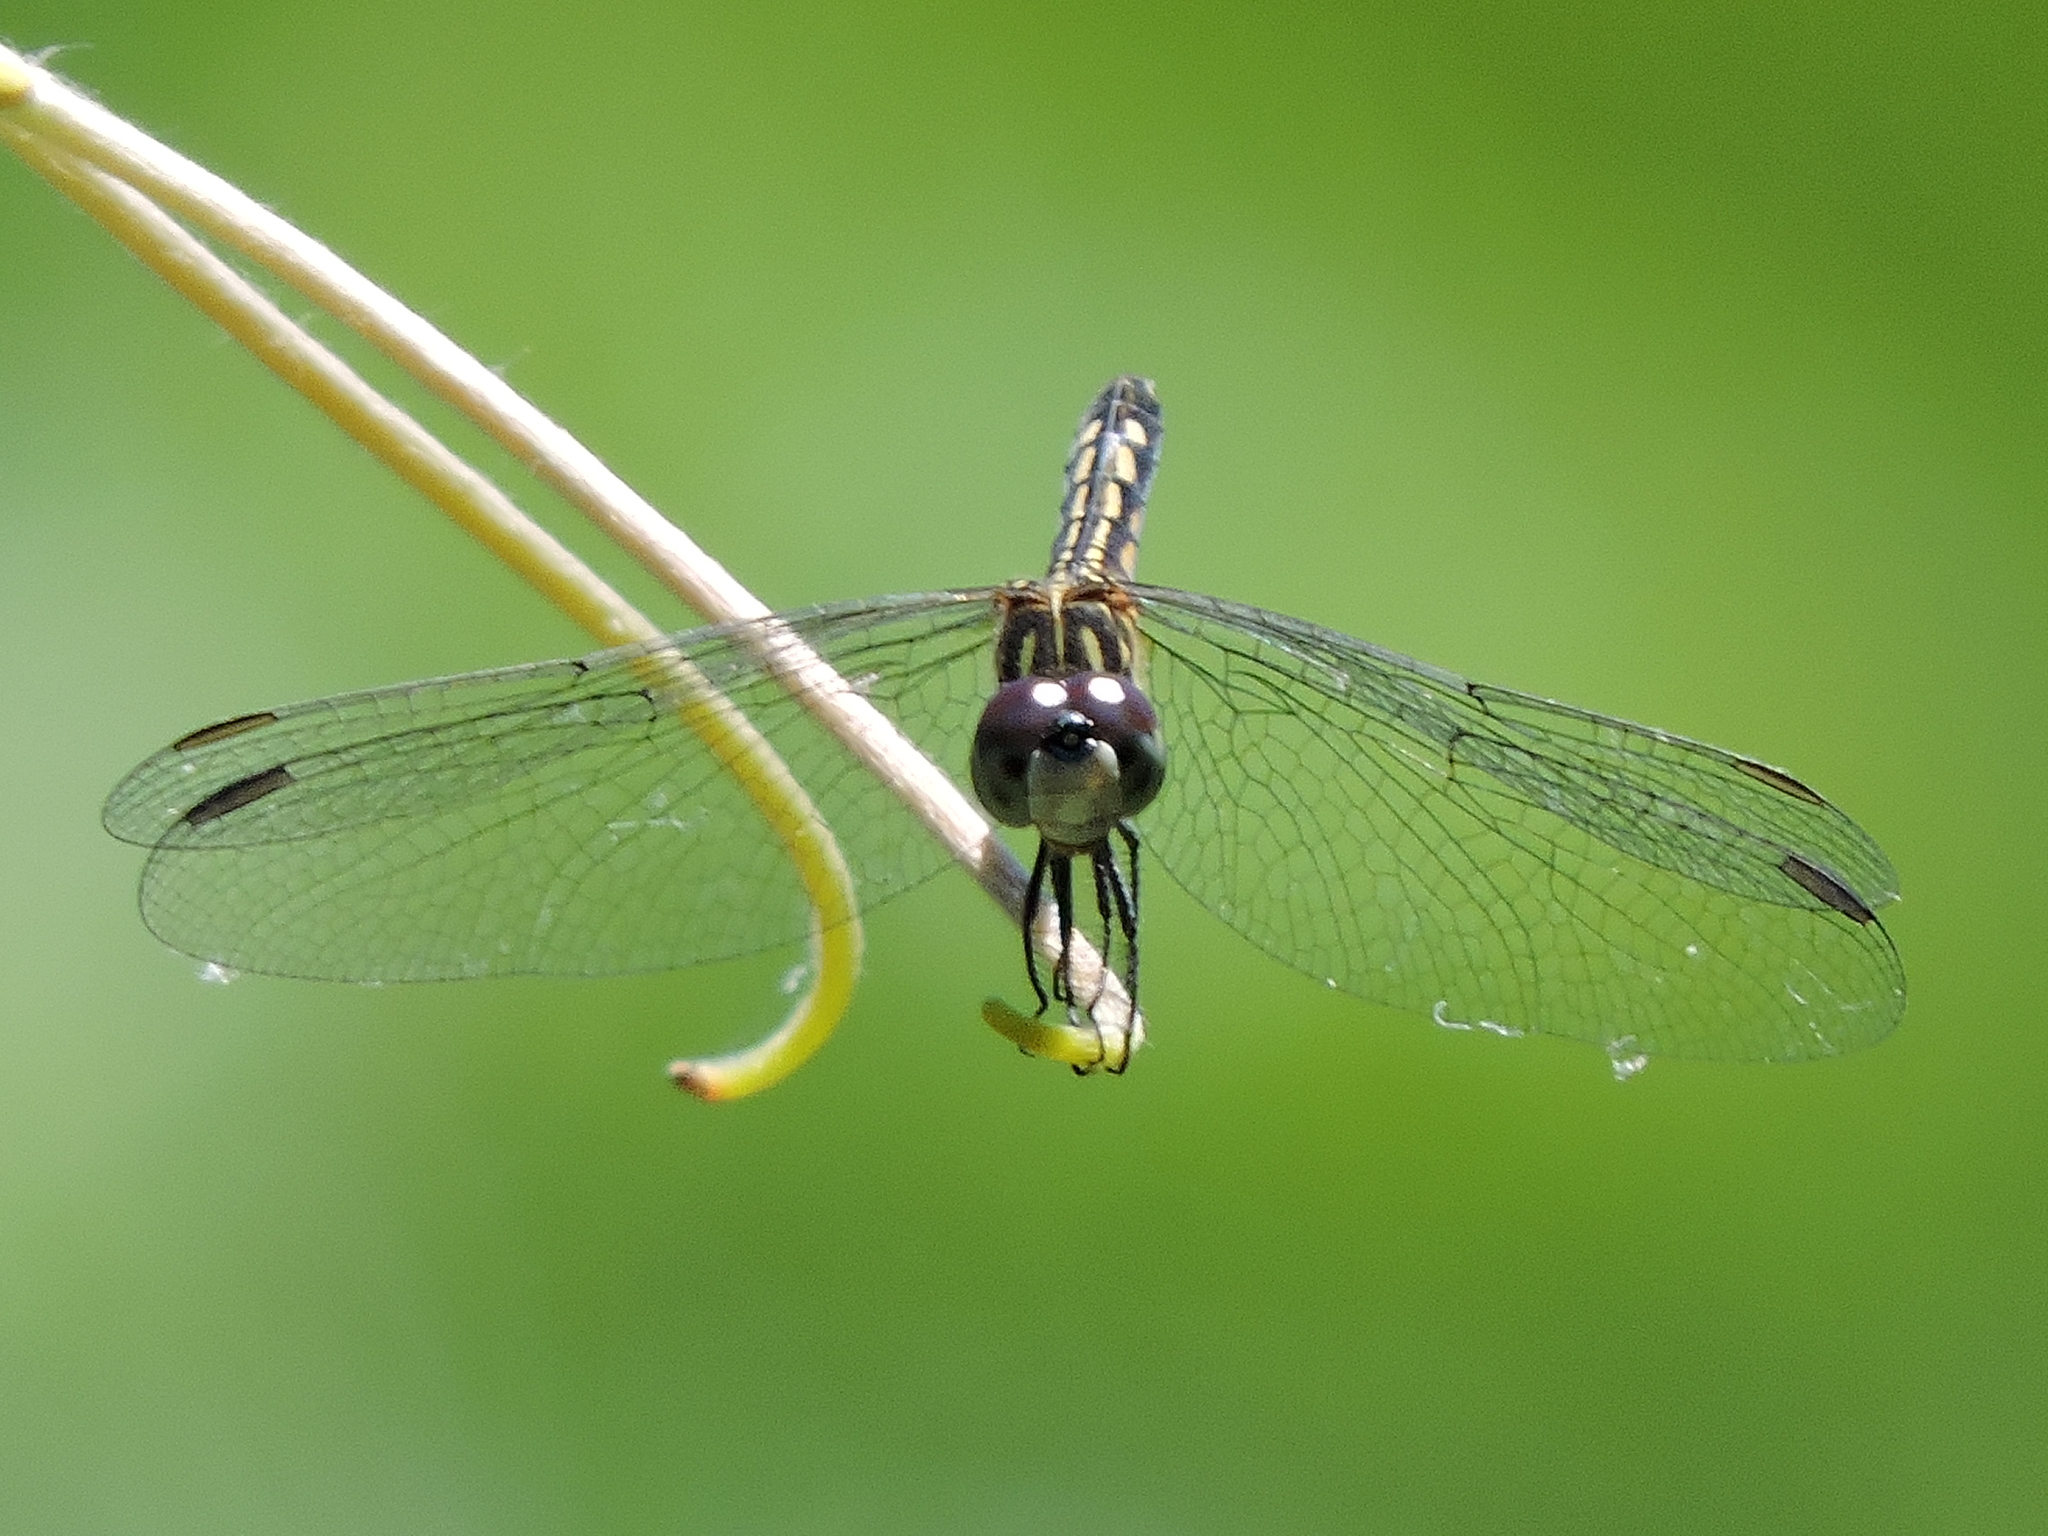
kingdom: Animalia
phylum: Arthropoda
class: Insecta
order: Odonata
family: Libellulidae
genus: Pachydiplax
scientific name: Pachydiplax longipennis
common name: Blue dasher
